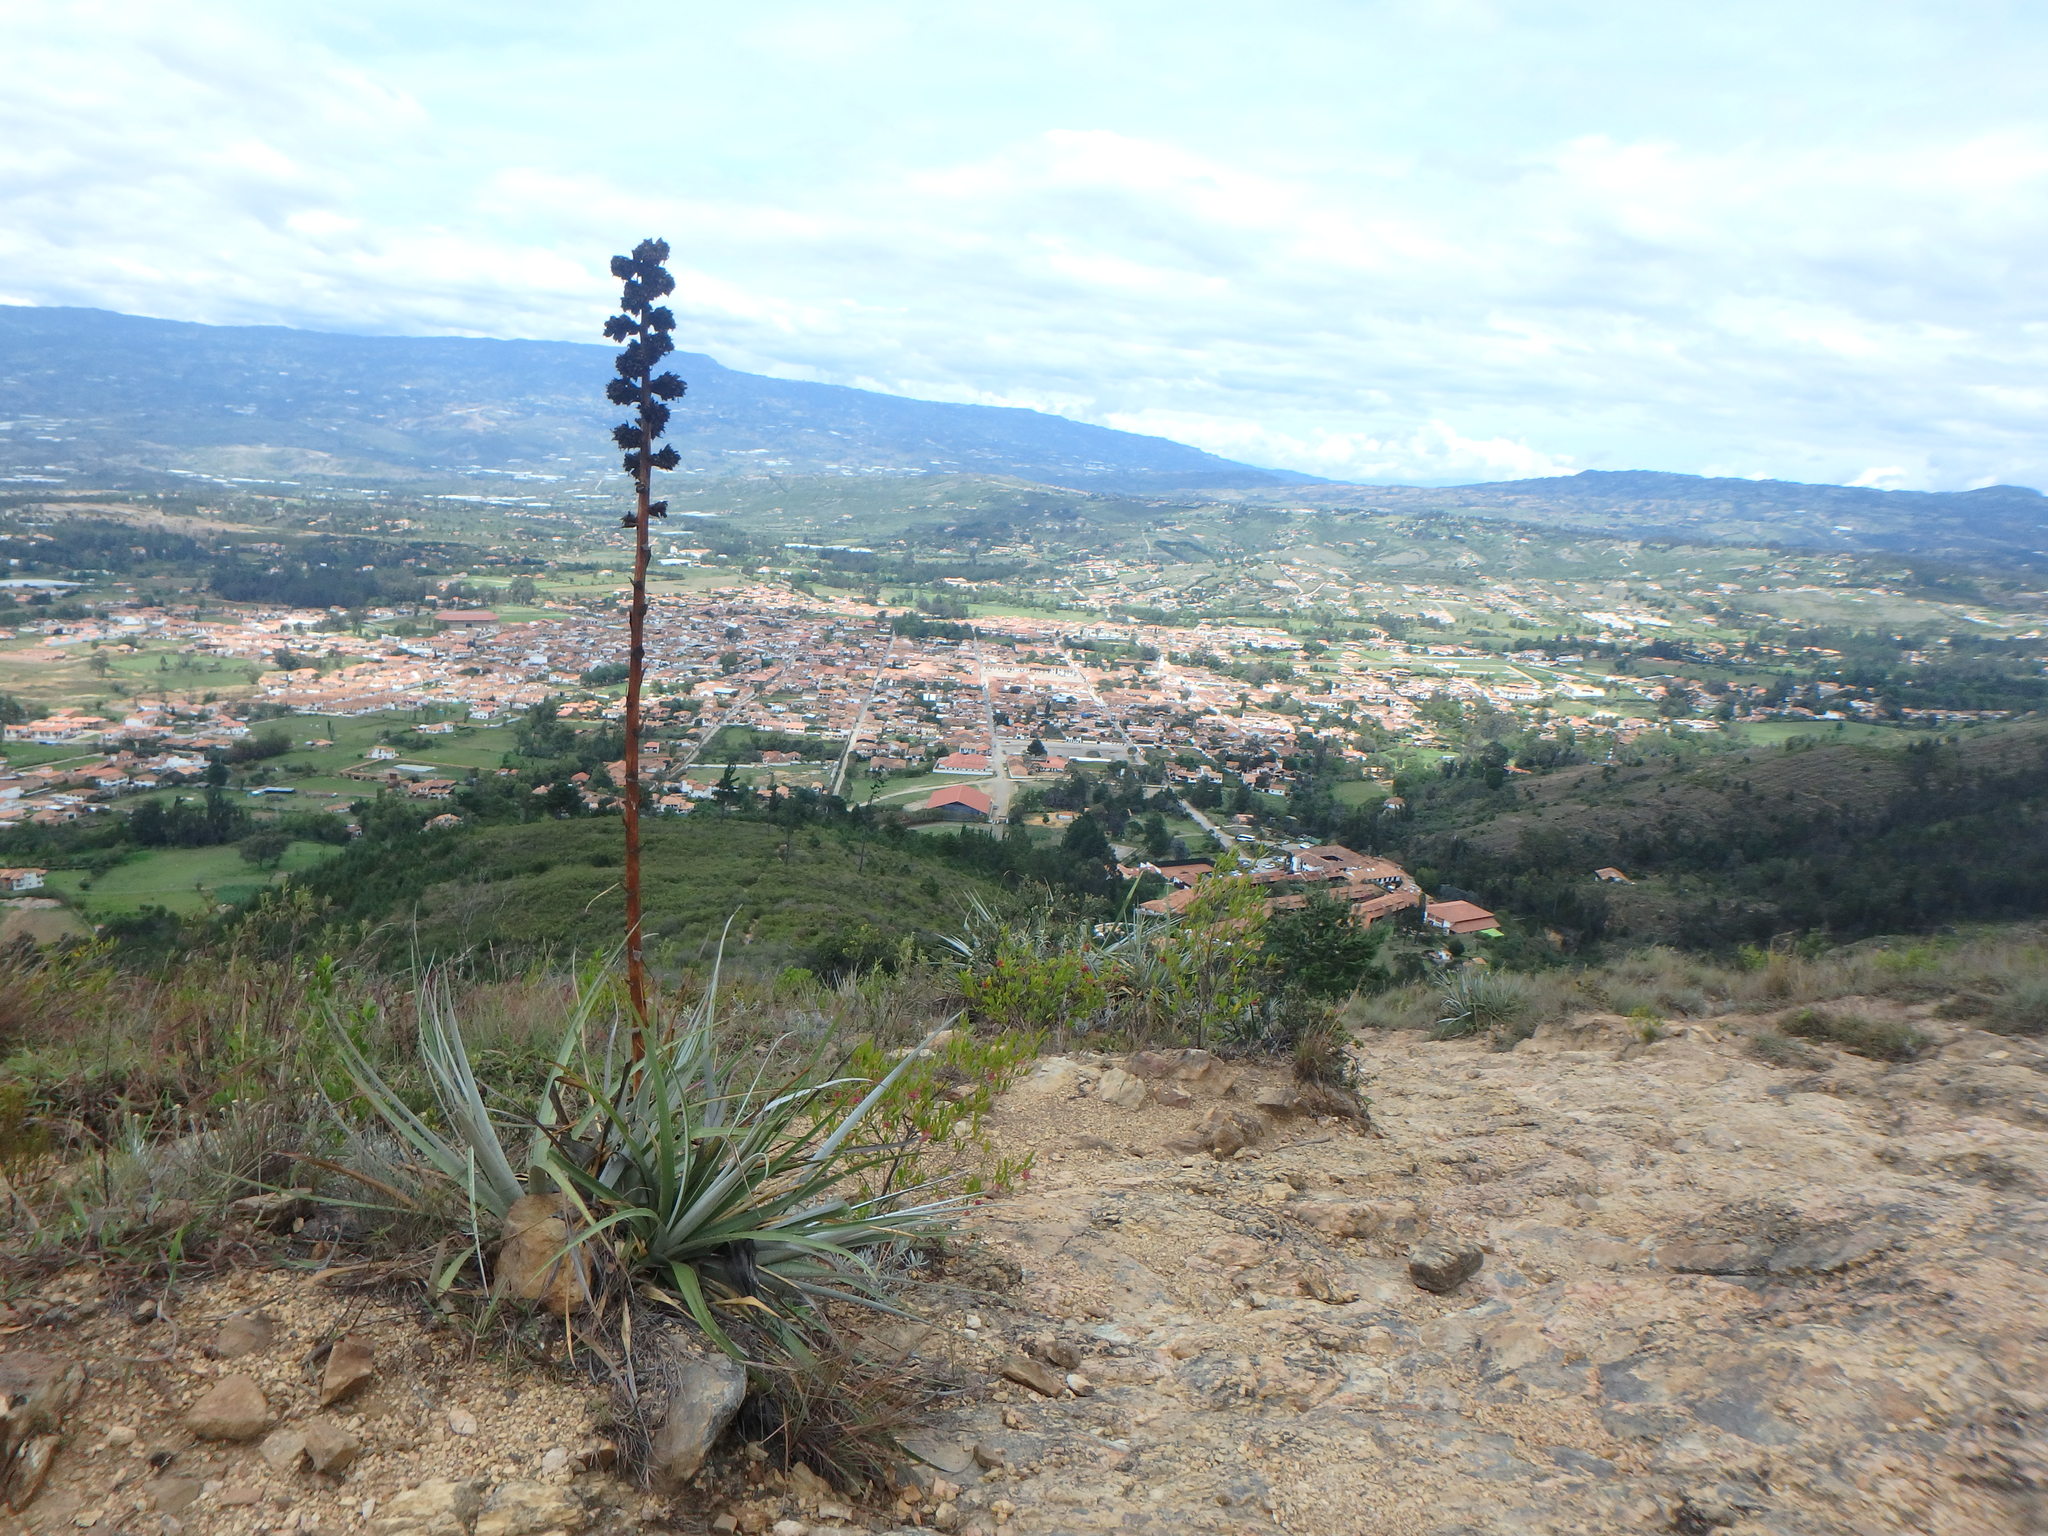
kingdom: Plantae
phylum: Tracheophyta
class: Liliopsida
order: Poales
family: Bromeliaceae
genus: Puya
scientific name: Puya bicolor
